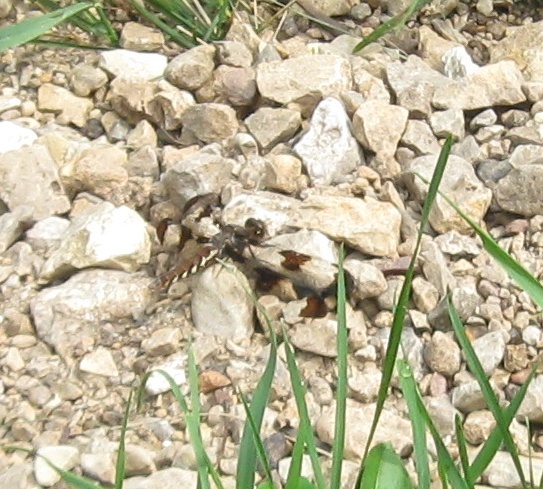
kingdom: Animalia
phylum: Arthropoda
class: Insecta
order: Odonata
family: Libellulidae
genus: Plathemis
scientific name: Plathemis lydia
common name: Common whitetail
